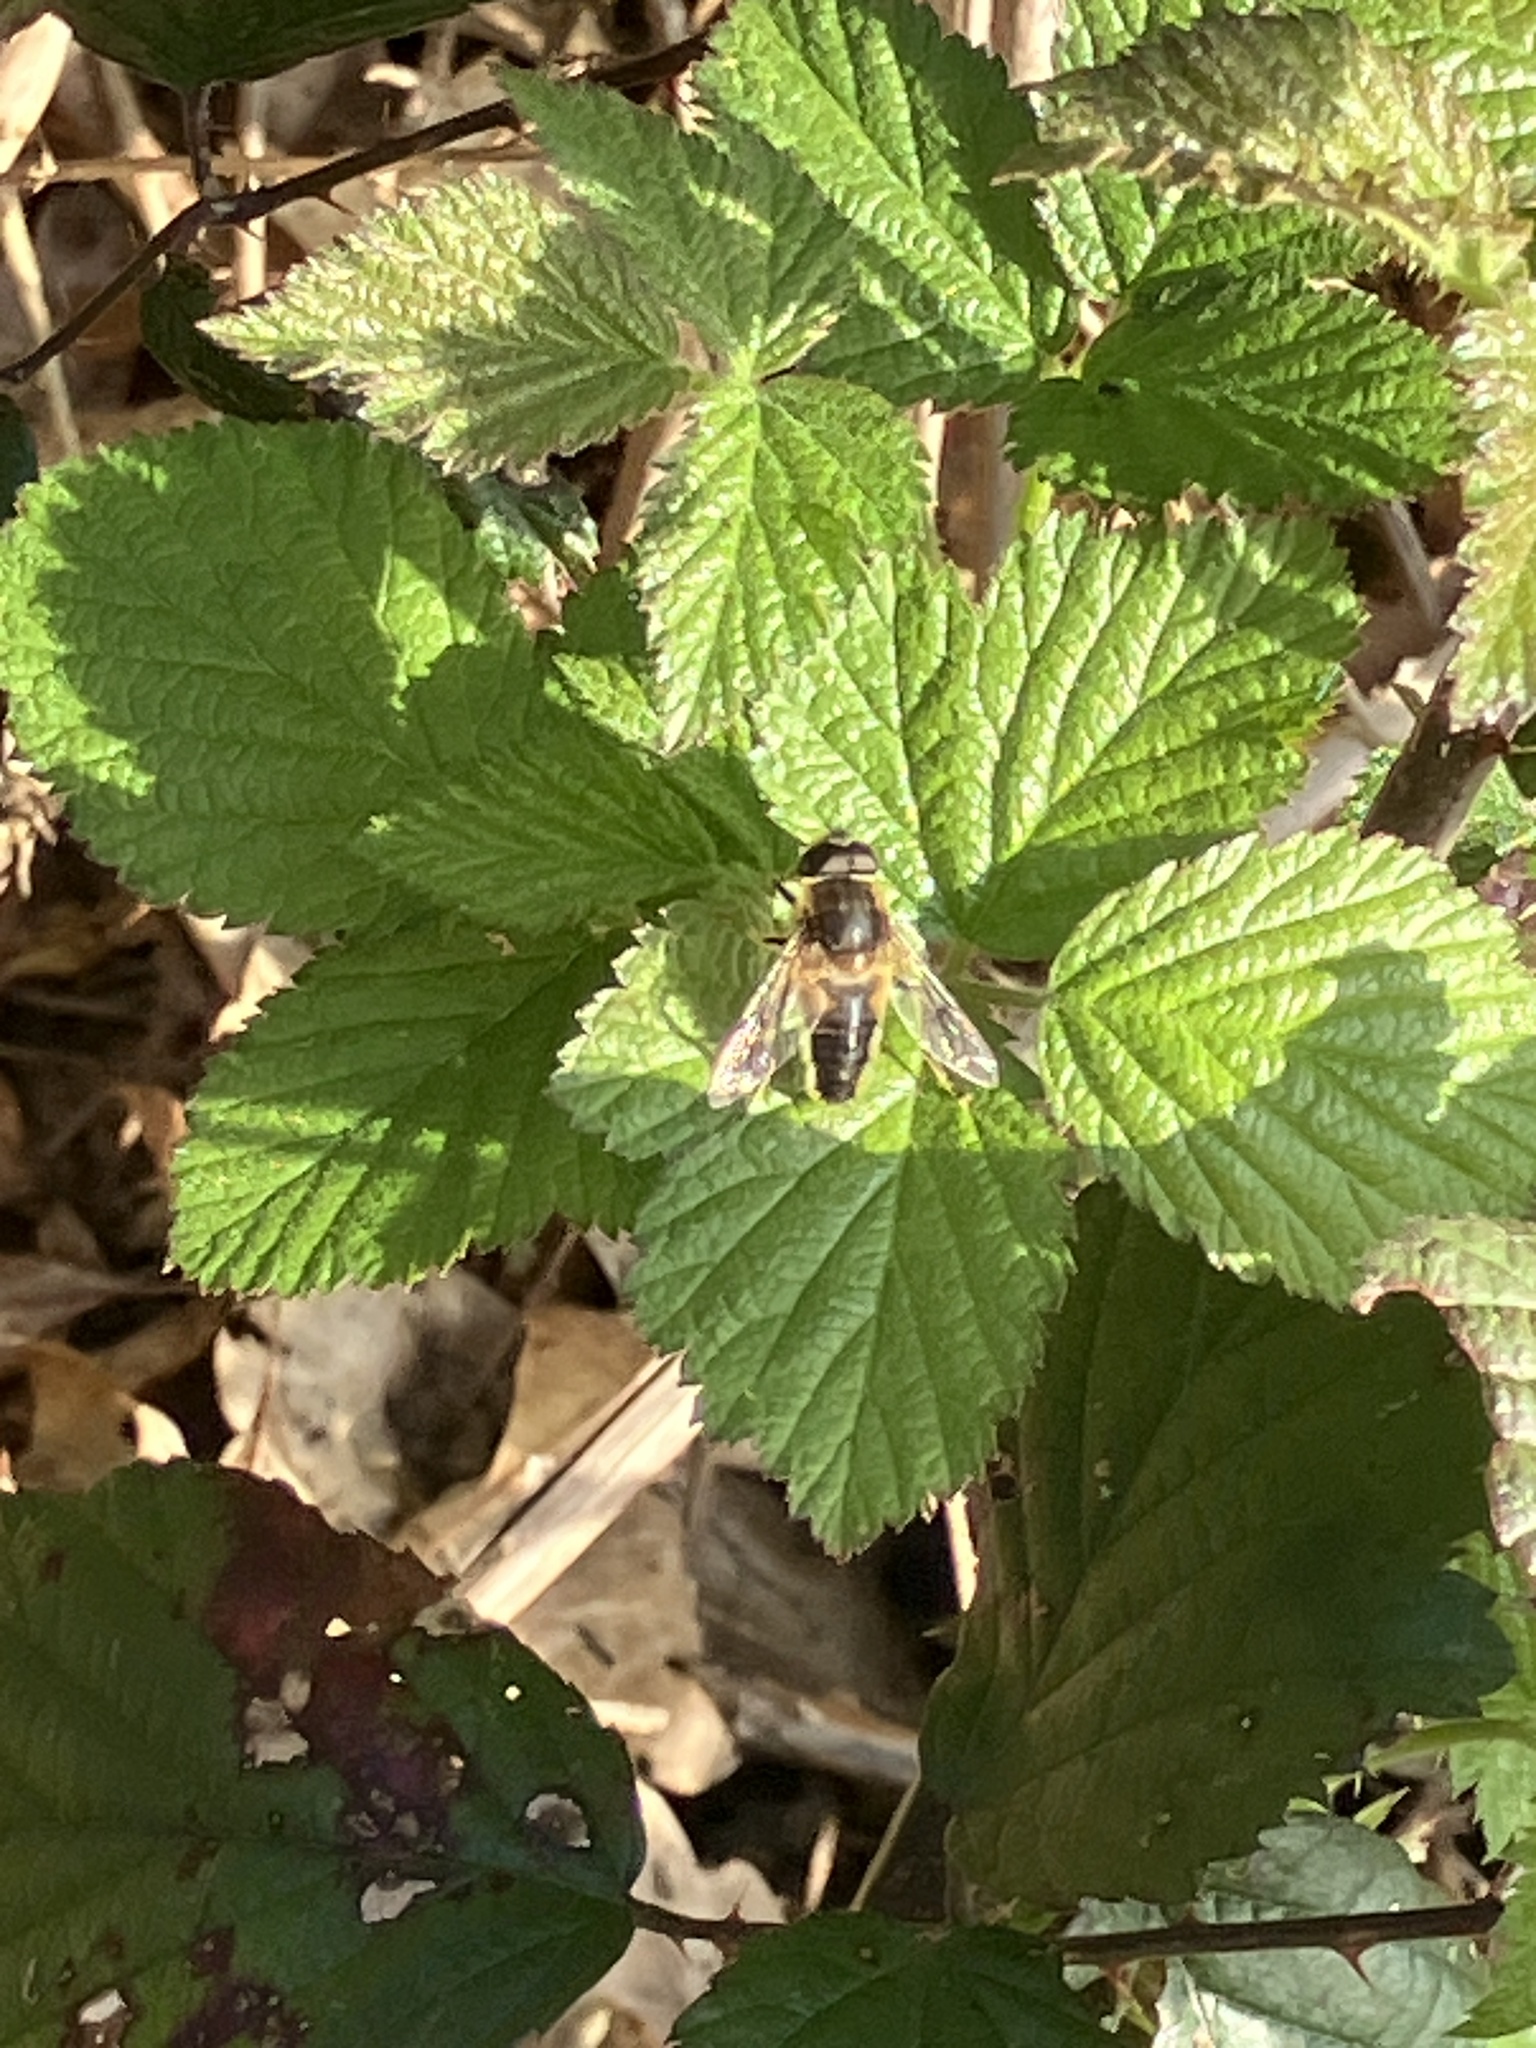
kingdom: Animalia
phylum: Arthropoda
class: Insecta
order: Diptera
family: Syrphidae
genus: Eristalis
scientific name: Eristalis pertinax
